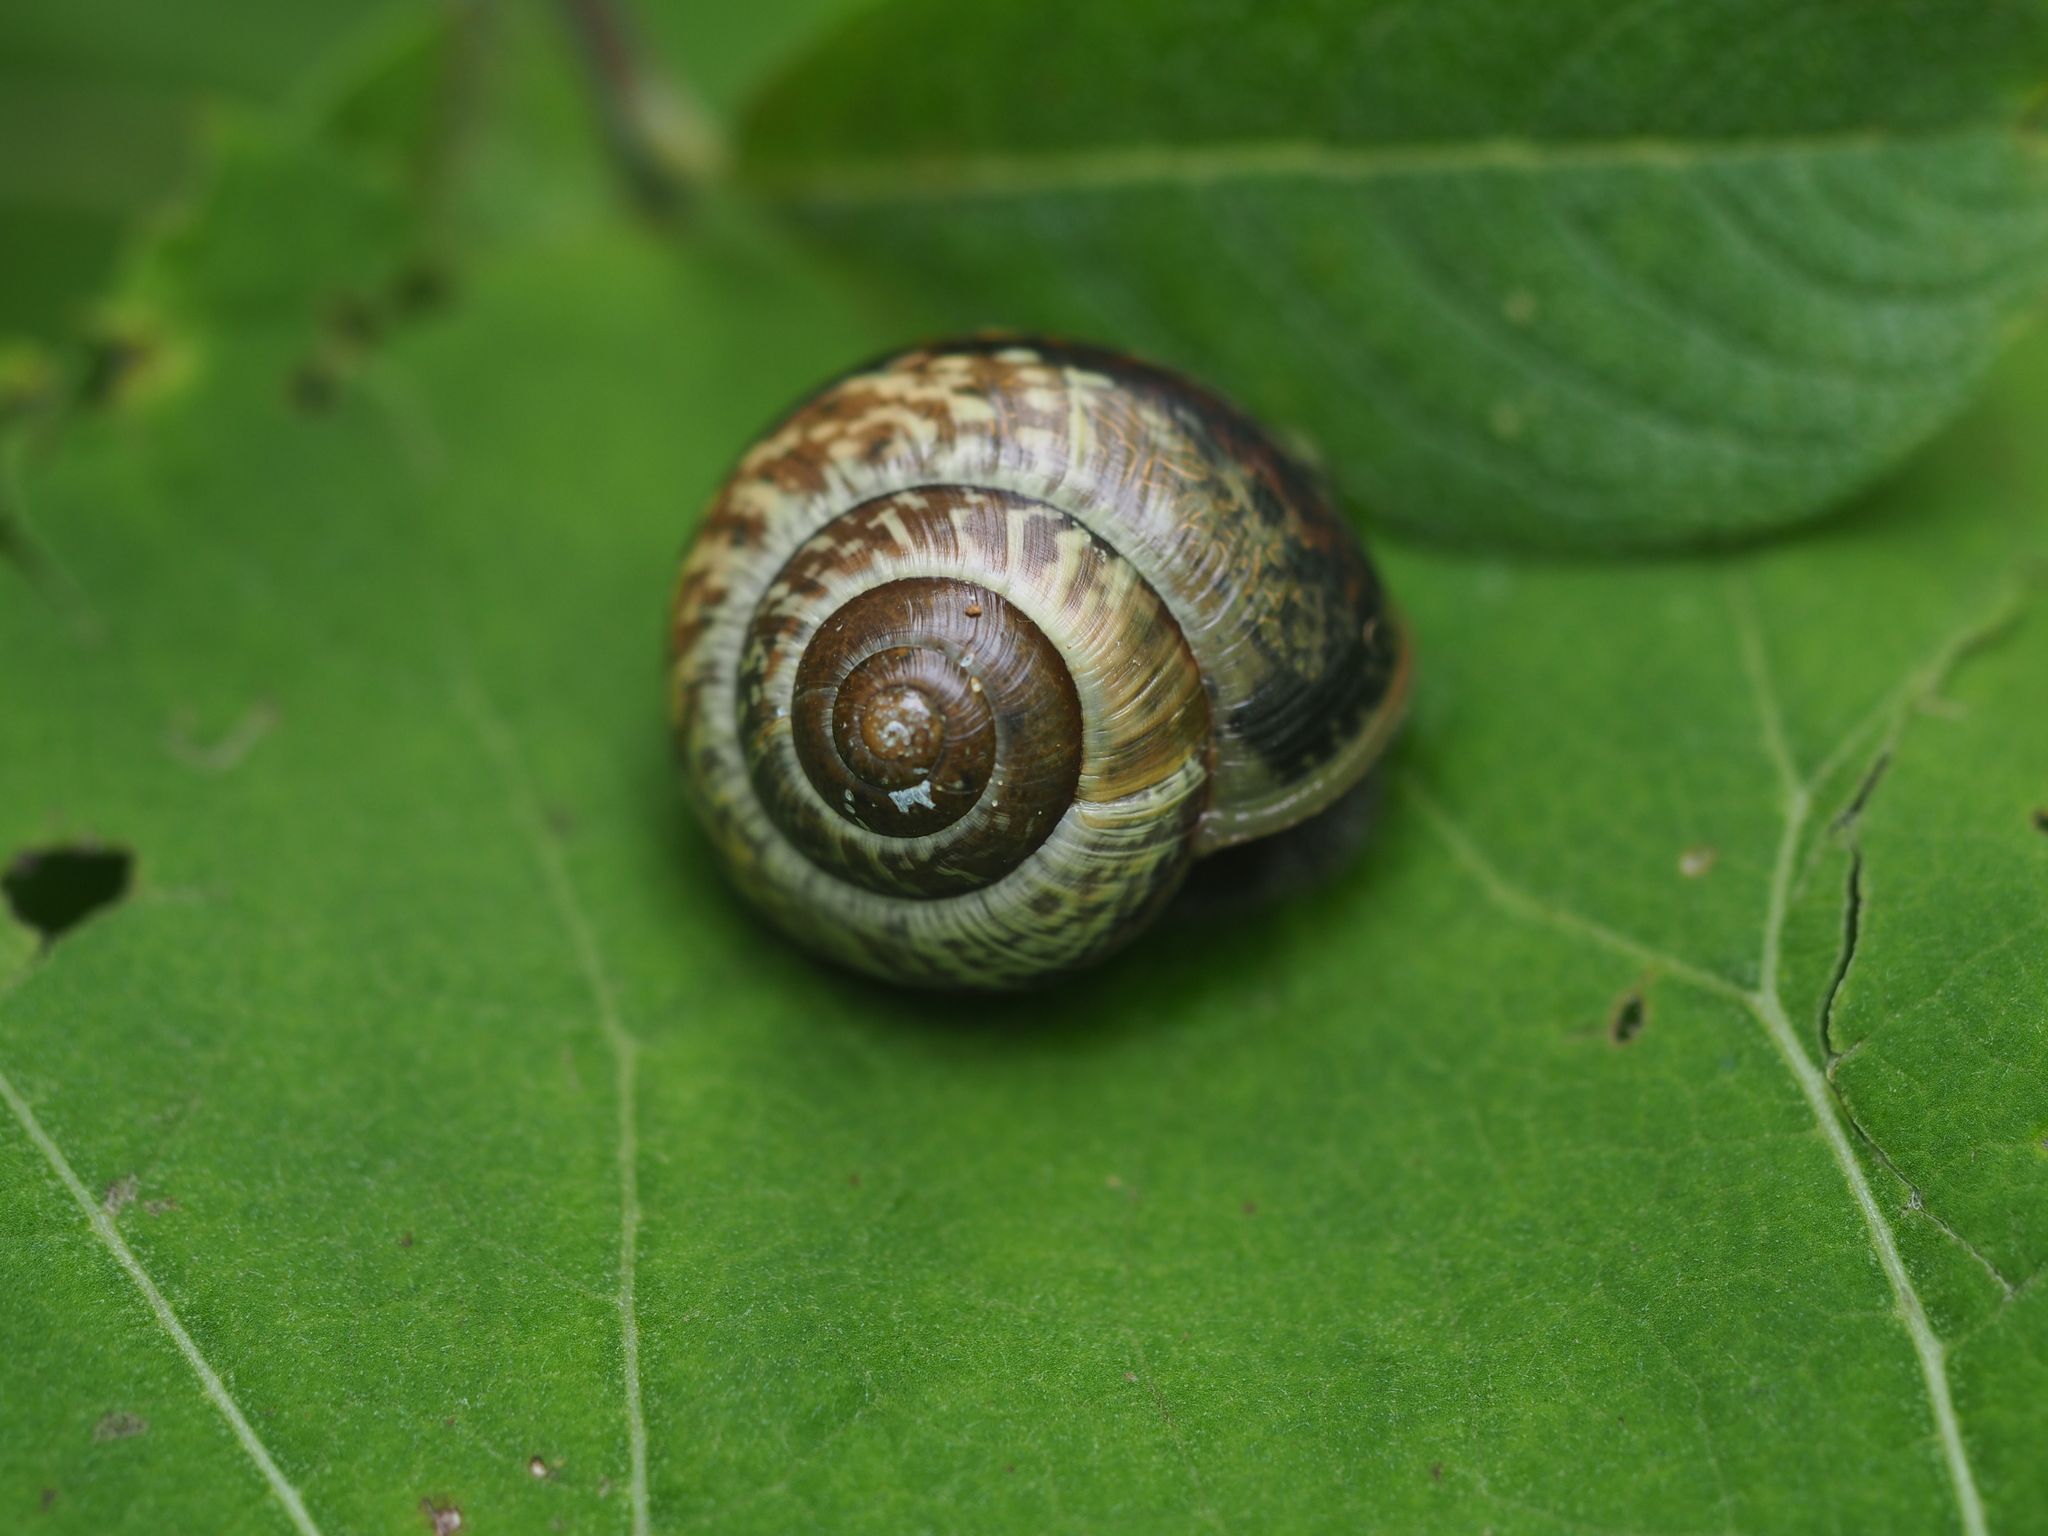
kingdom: Animalia
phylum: Mollusca
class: Gastropoda
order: Stylommatophora
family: Helicidae
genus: Arianta
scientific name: Arianta arbustorum
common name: Copse snail
